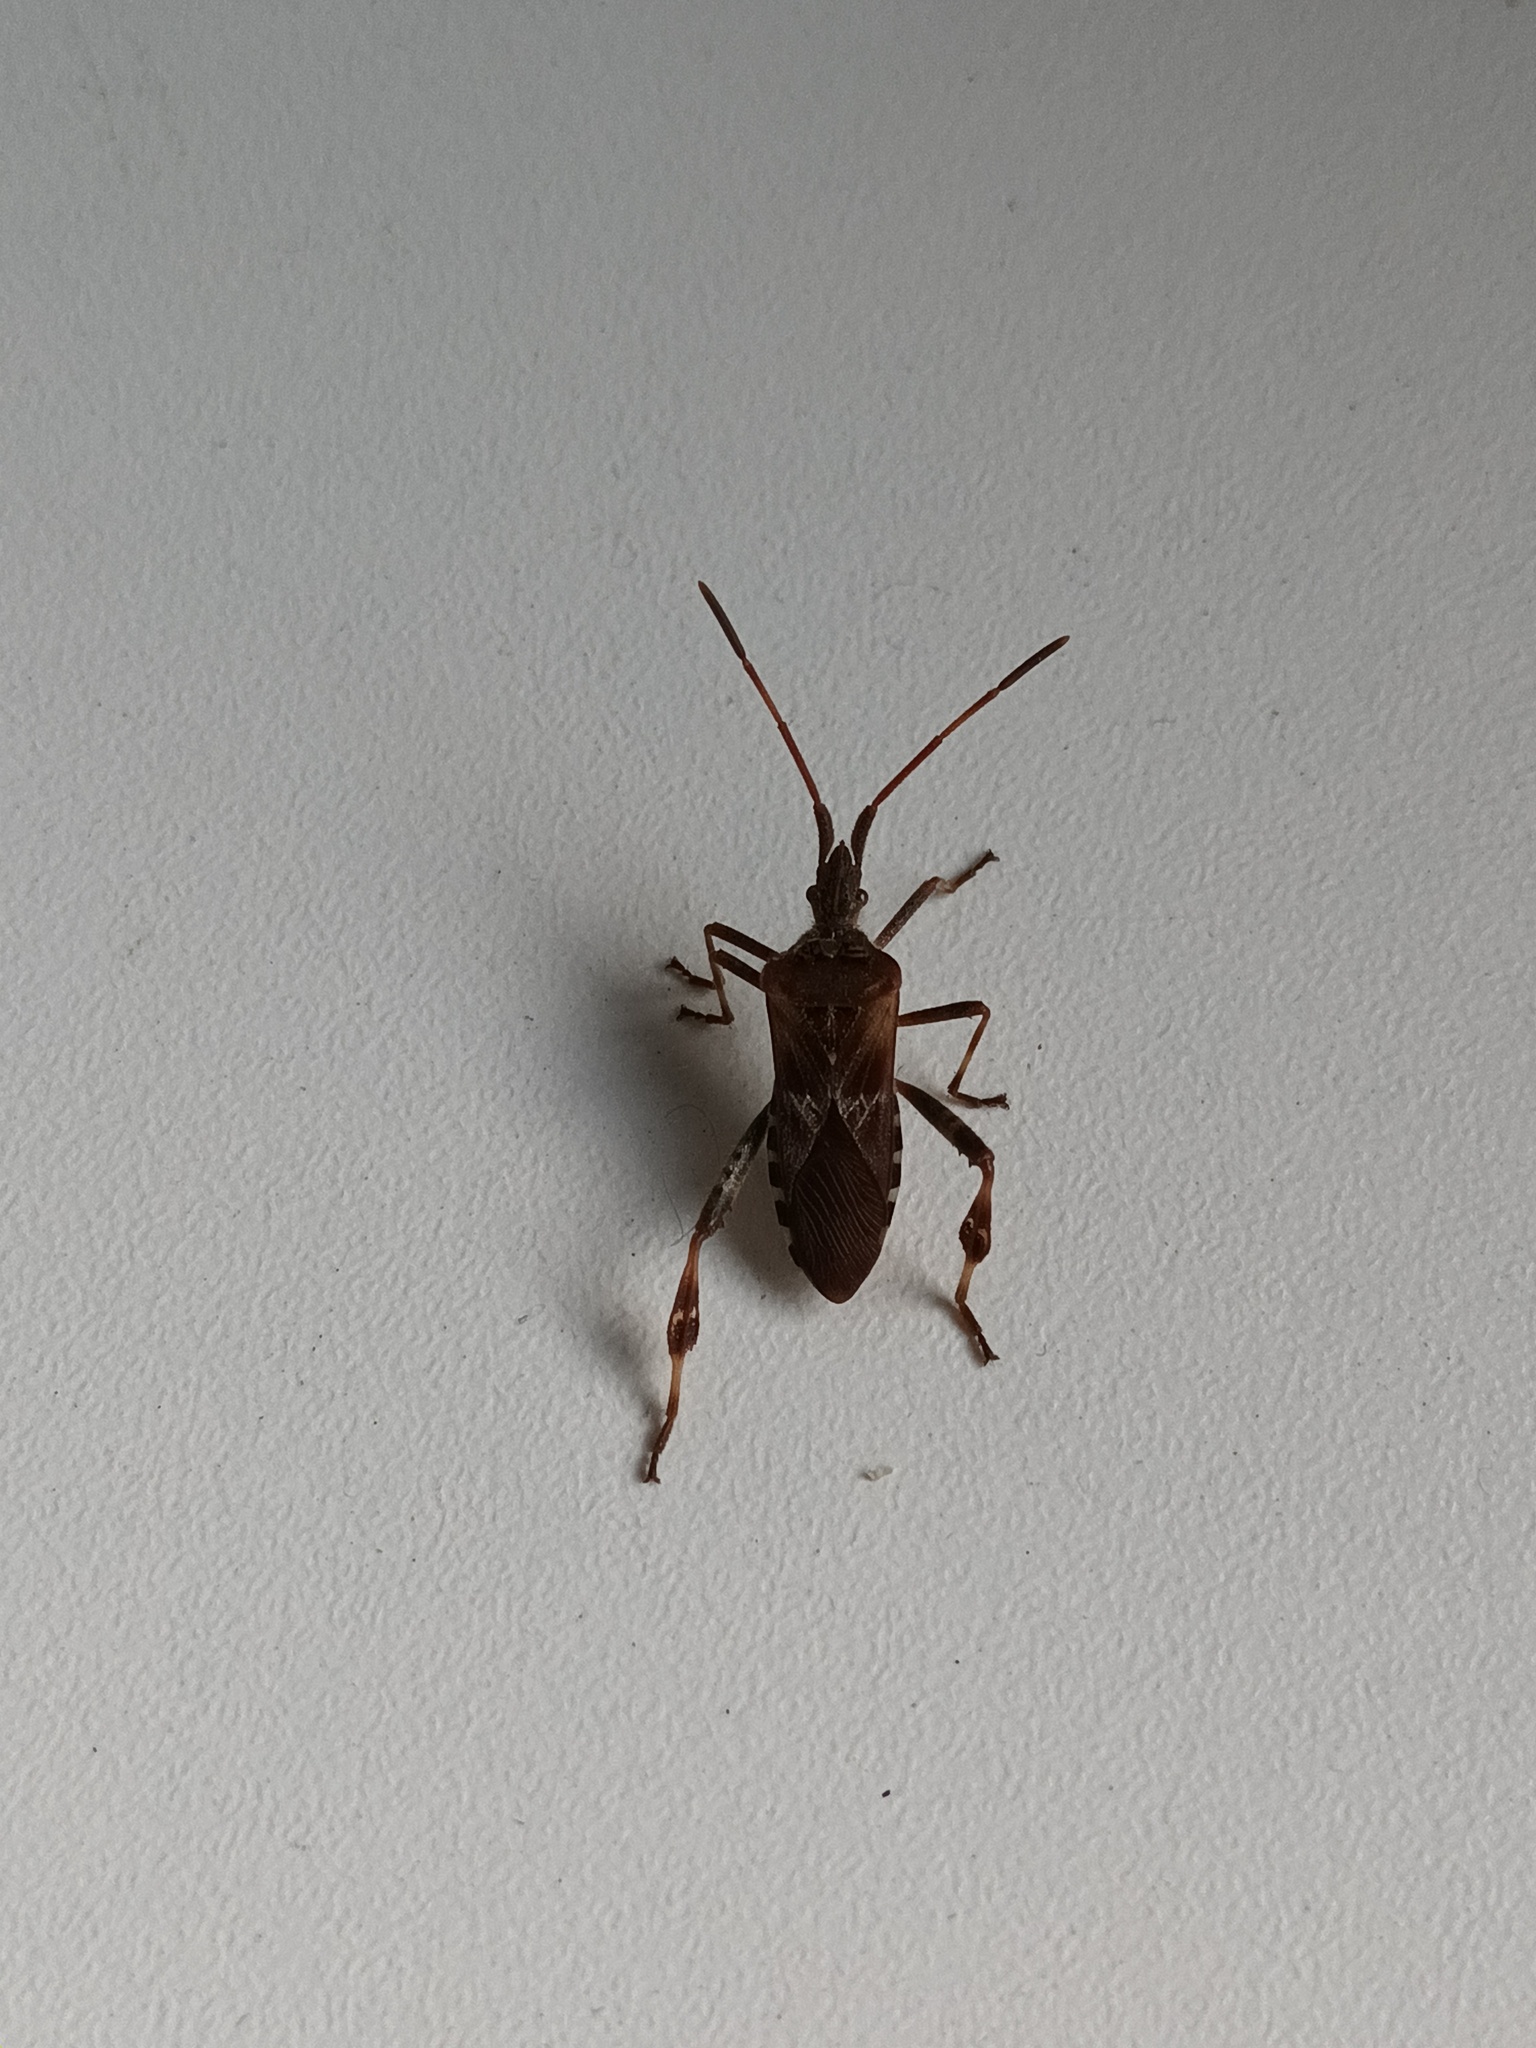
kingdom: Animalia
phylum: Arthropoda
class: Insecta
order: Hemiptera
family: Coreidae
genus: Leptoglossus
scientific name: Leptoglossus occidentalis
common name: Western conifer-seed bug
